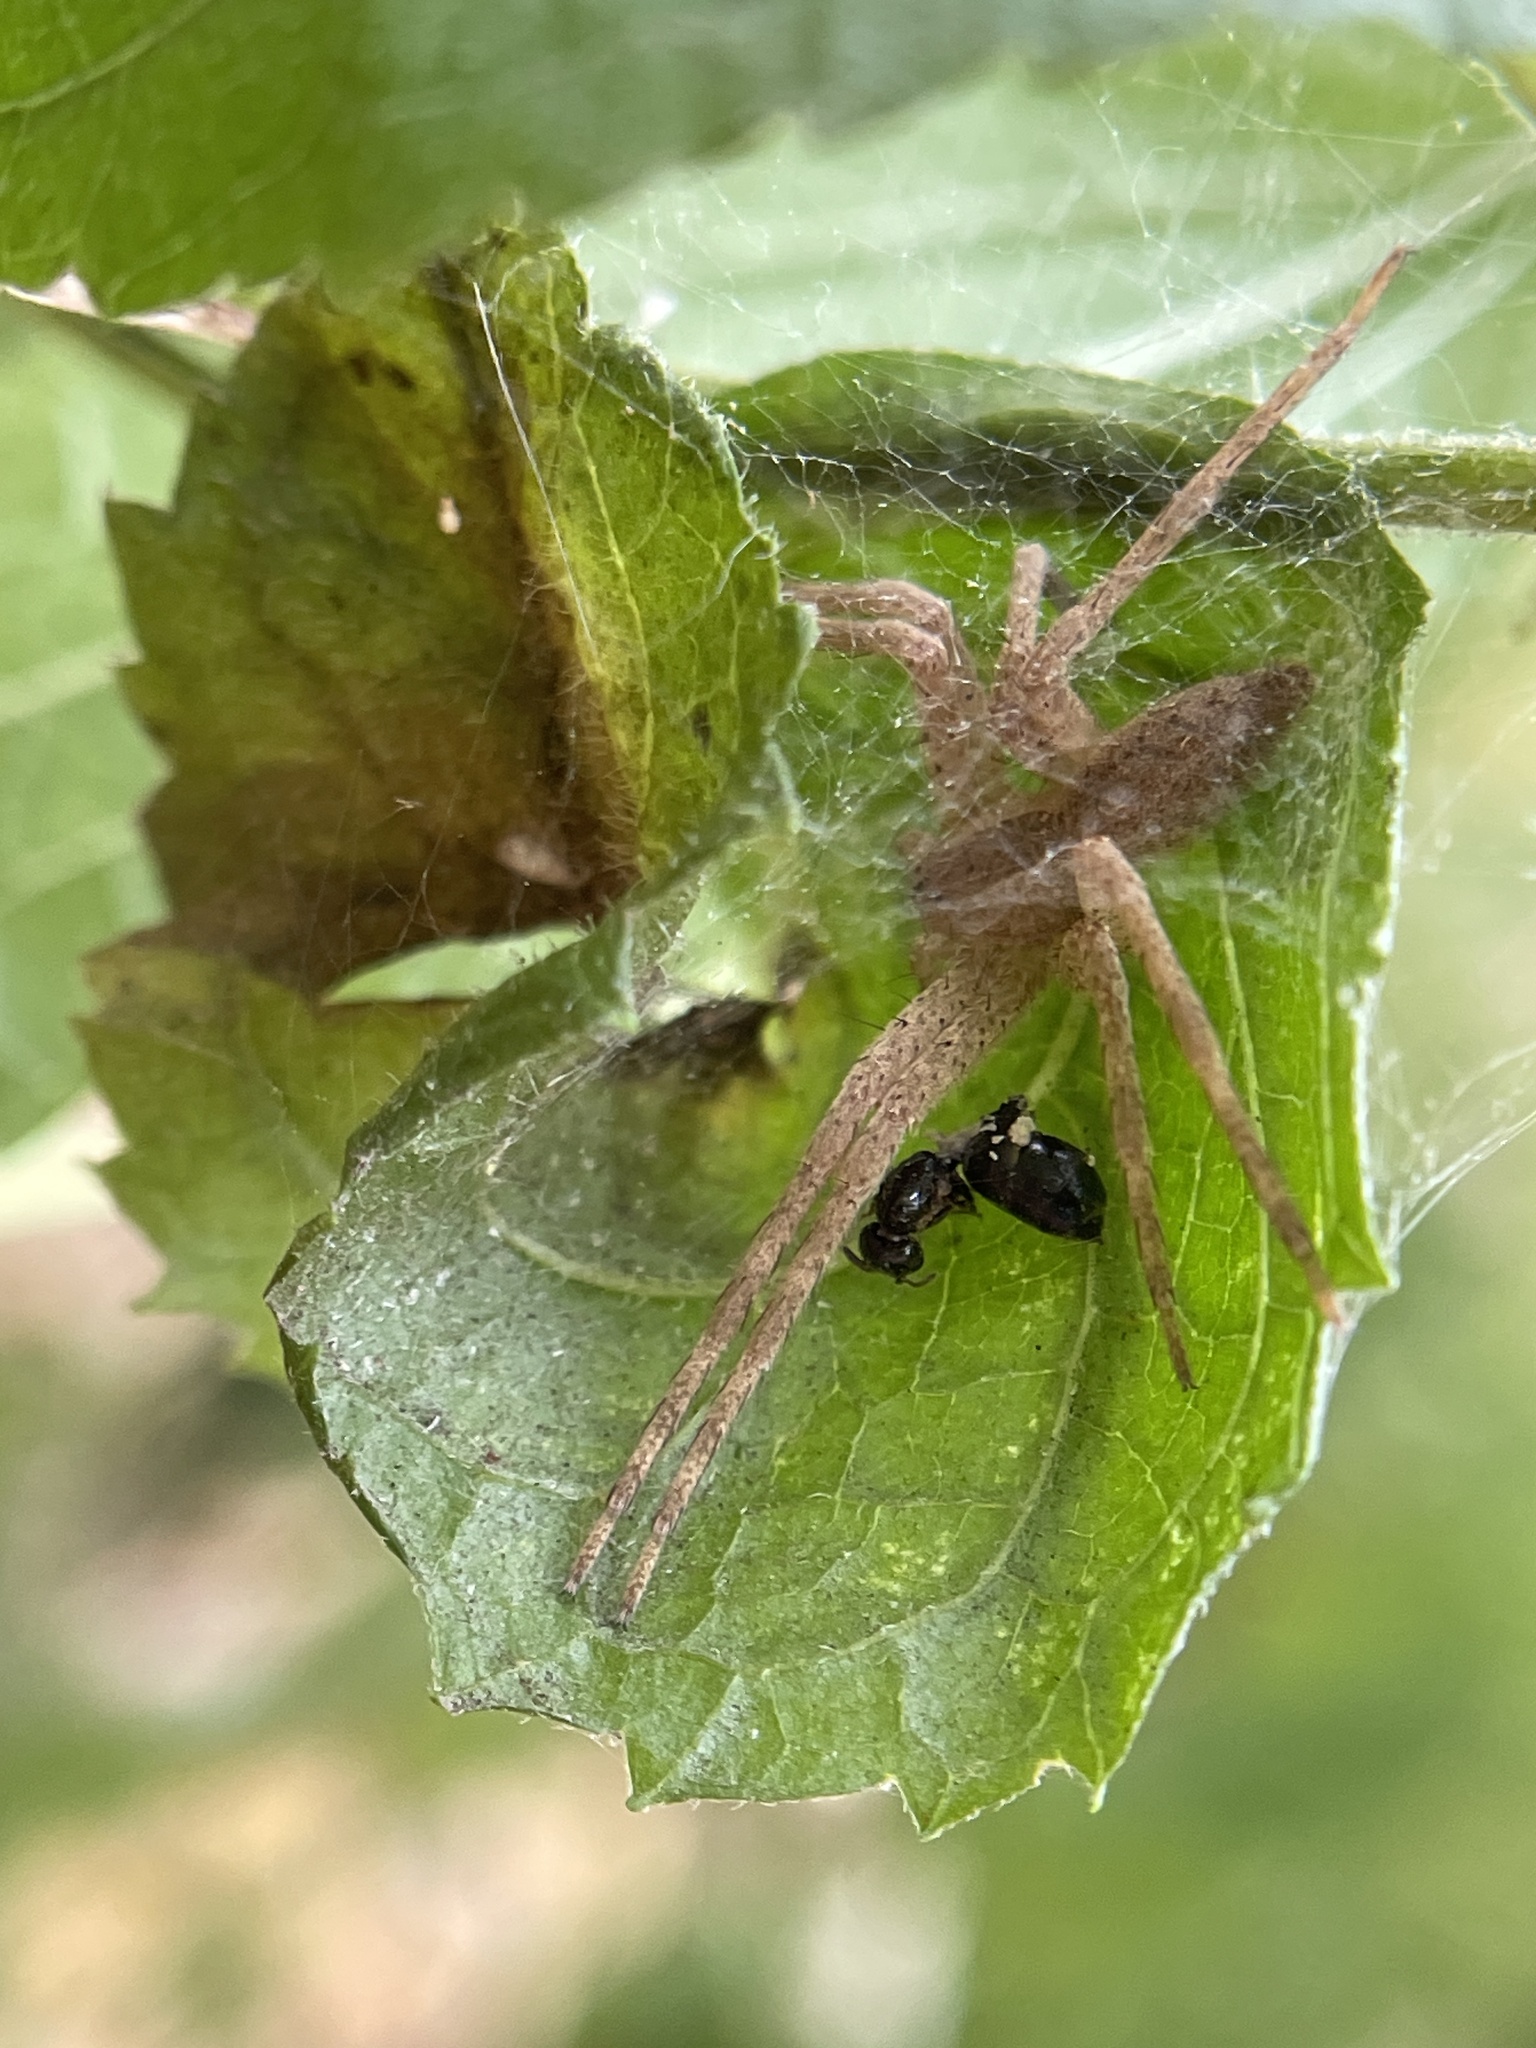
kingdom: Animalia
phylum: Arthropoda
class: Arachnida
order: Araneae
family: Pisauridae
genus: Pisaurina
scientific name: Pisaurina mira
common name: American nursery web spider
